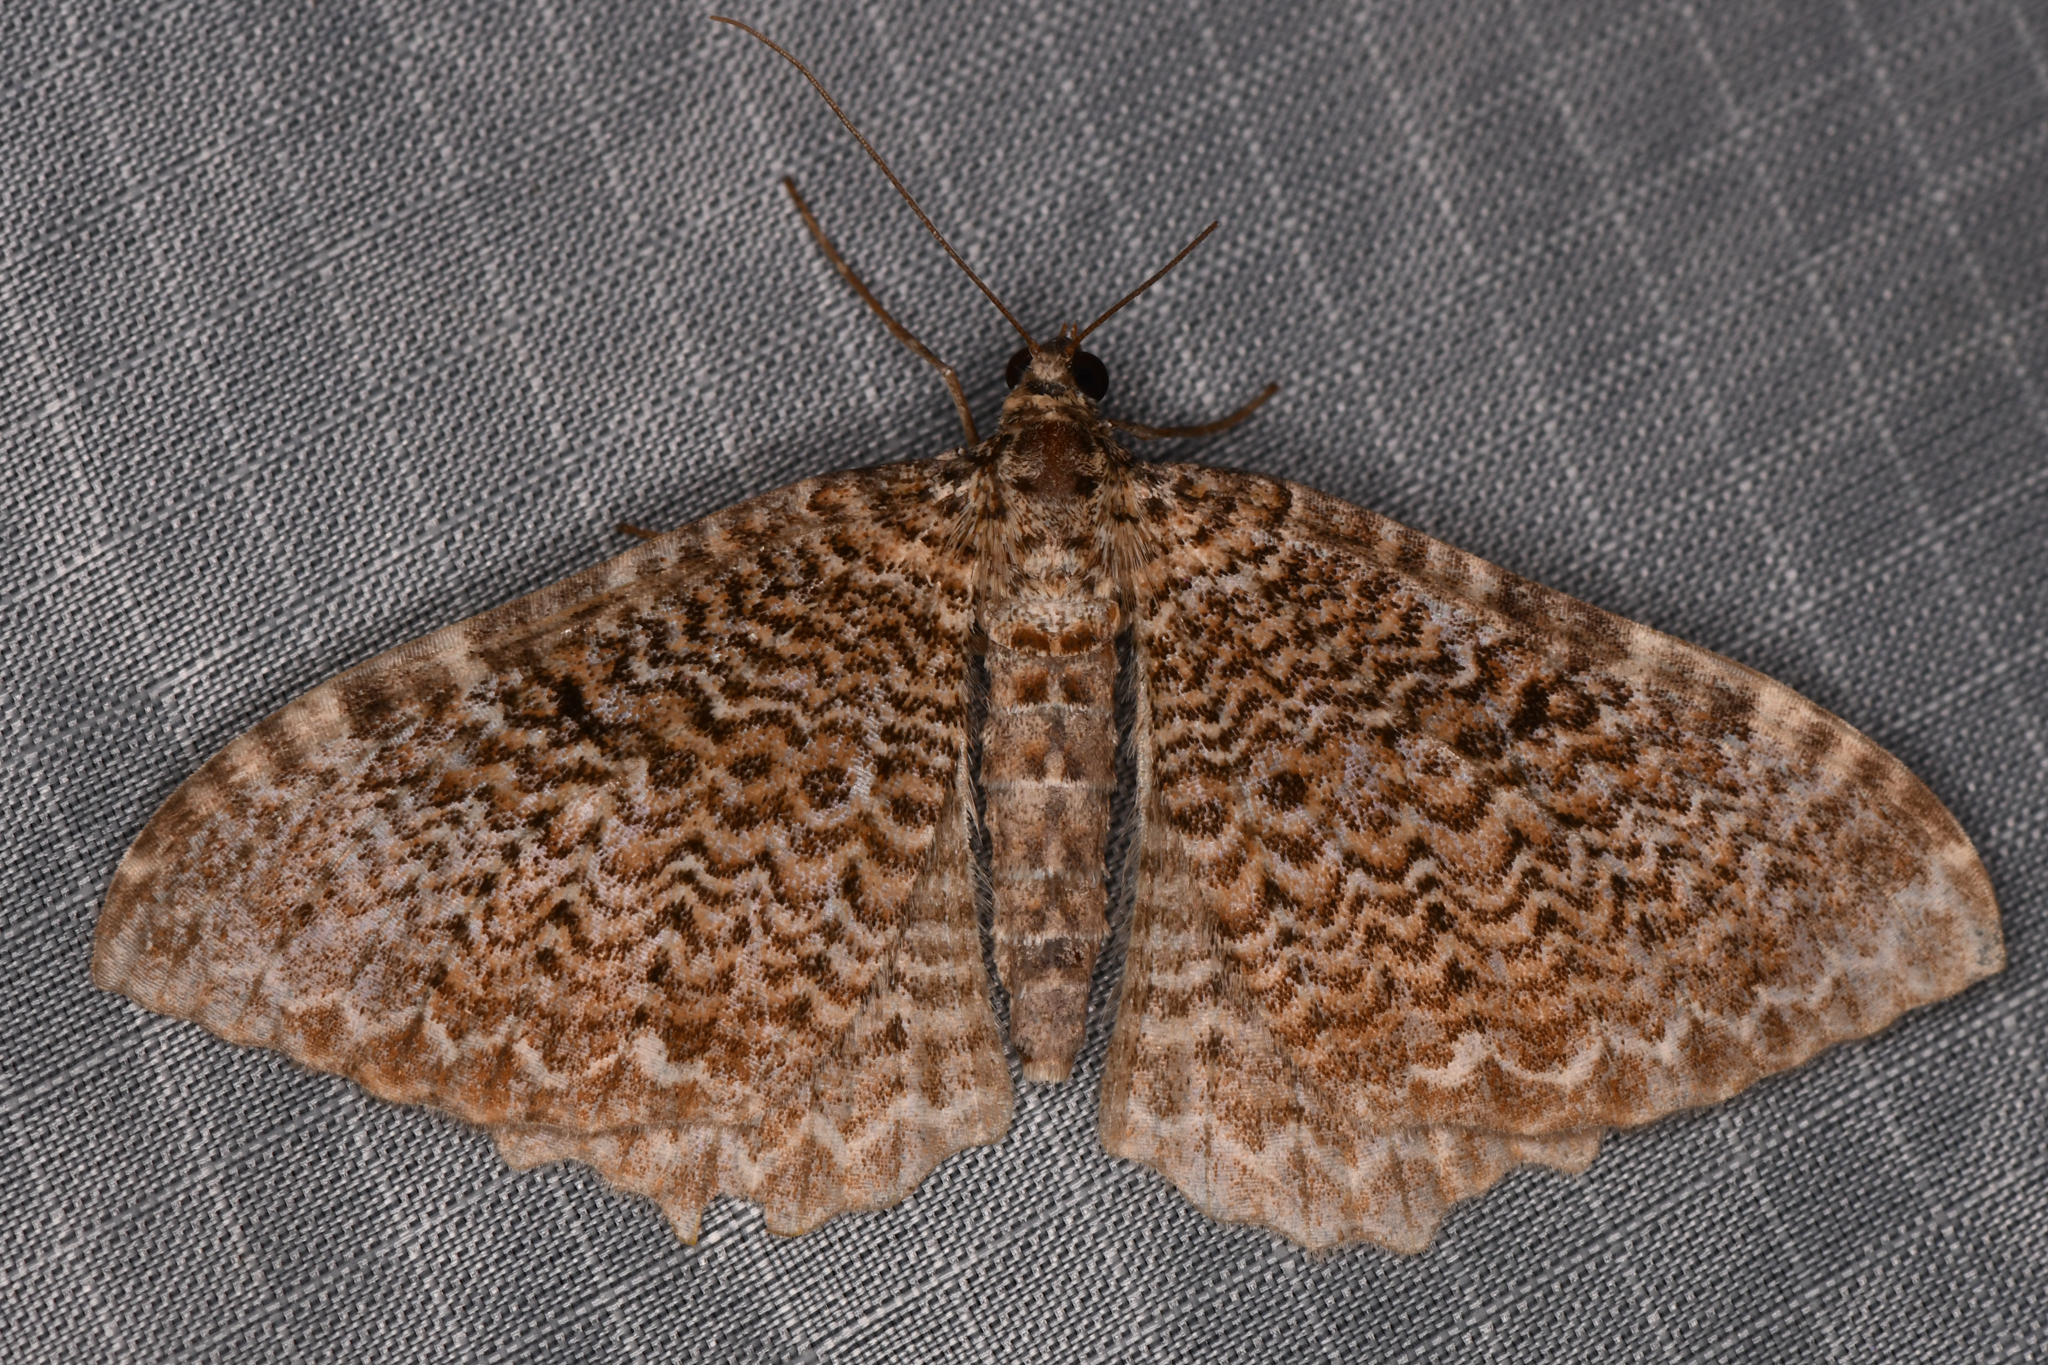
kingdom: Animalia
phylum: Arthropoda
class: Insecta
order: Lepidoptera
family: Geometridae
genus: Rheumaptera
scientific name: Rheumaptera undulata
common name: Scallop shell
